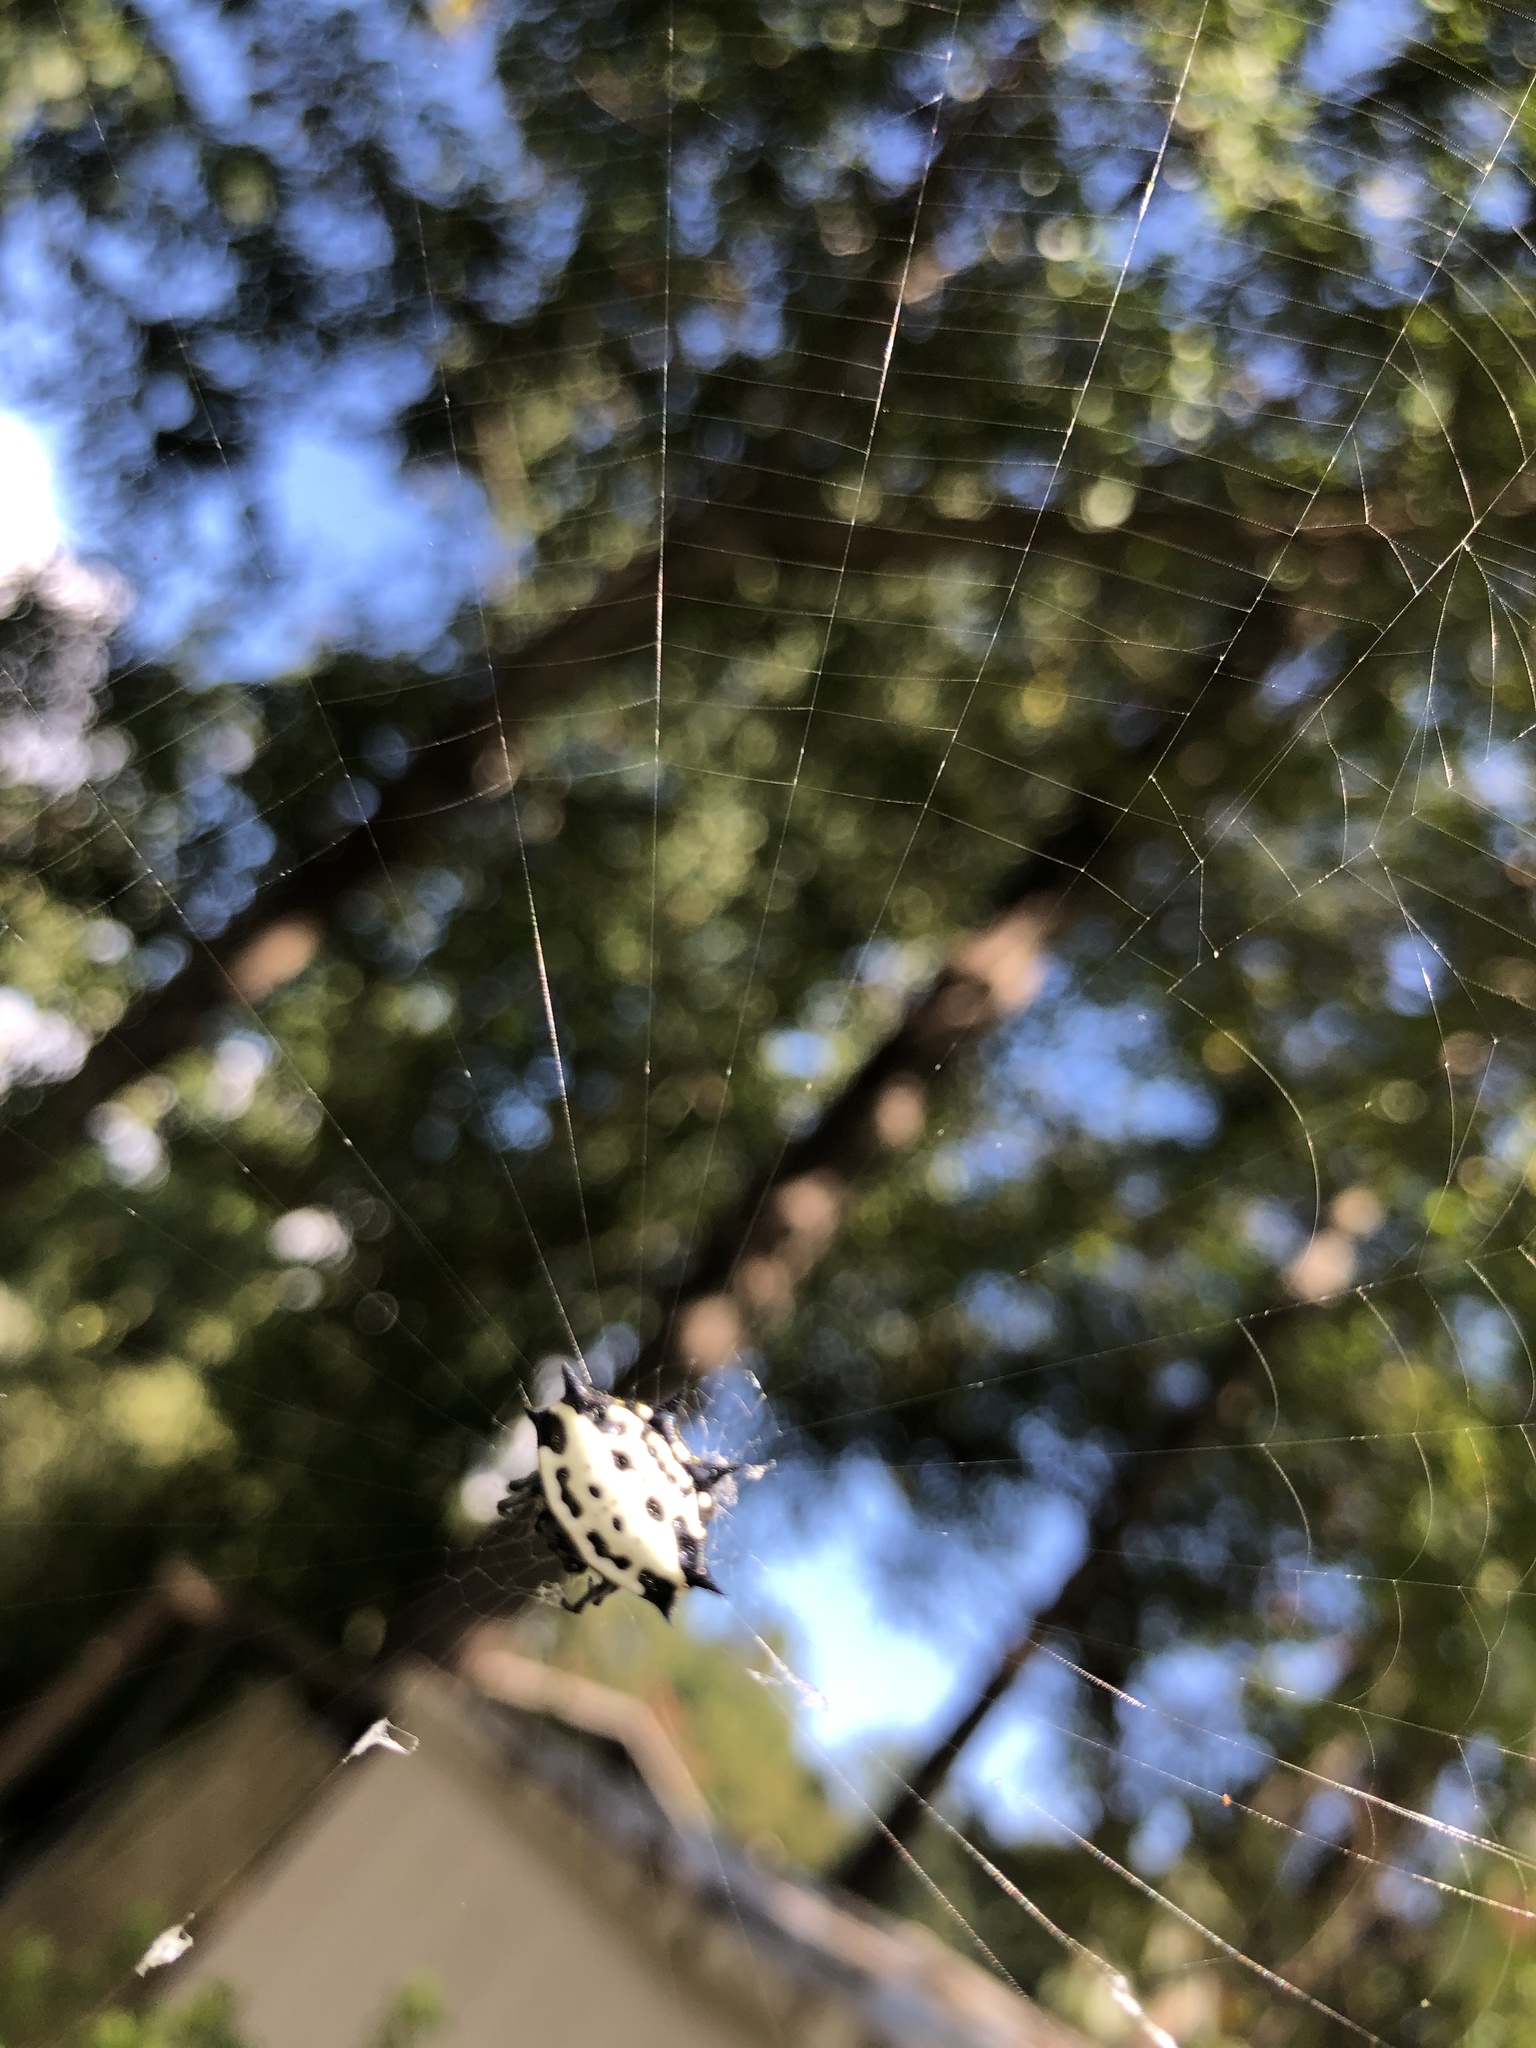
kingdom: Animalia
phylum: Arthropoda
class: Arachnida
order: Araneae
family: Araneidae
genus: Gasteracantha
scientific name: Gasteracantha cancriformis
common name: Orb weavers
